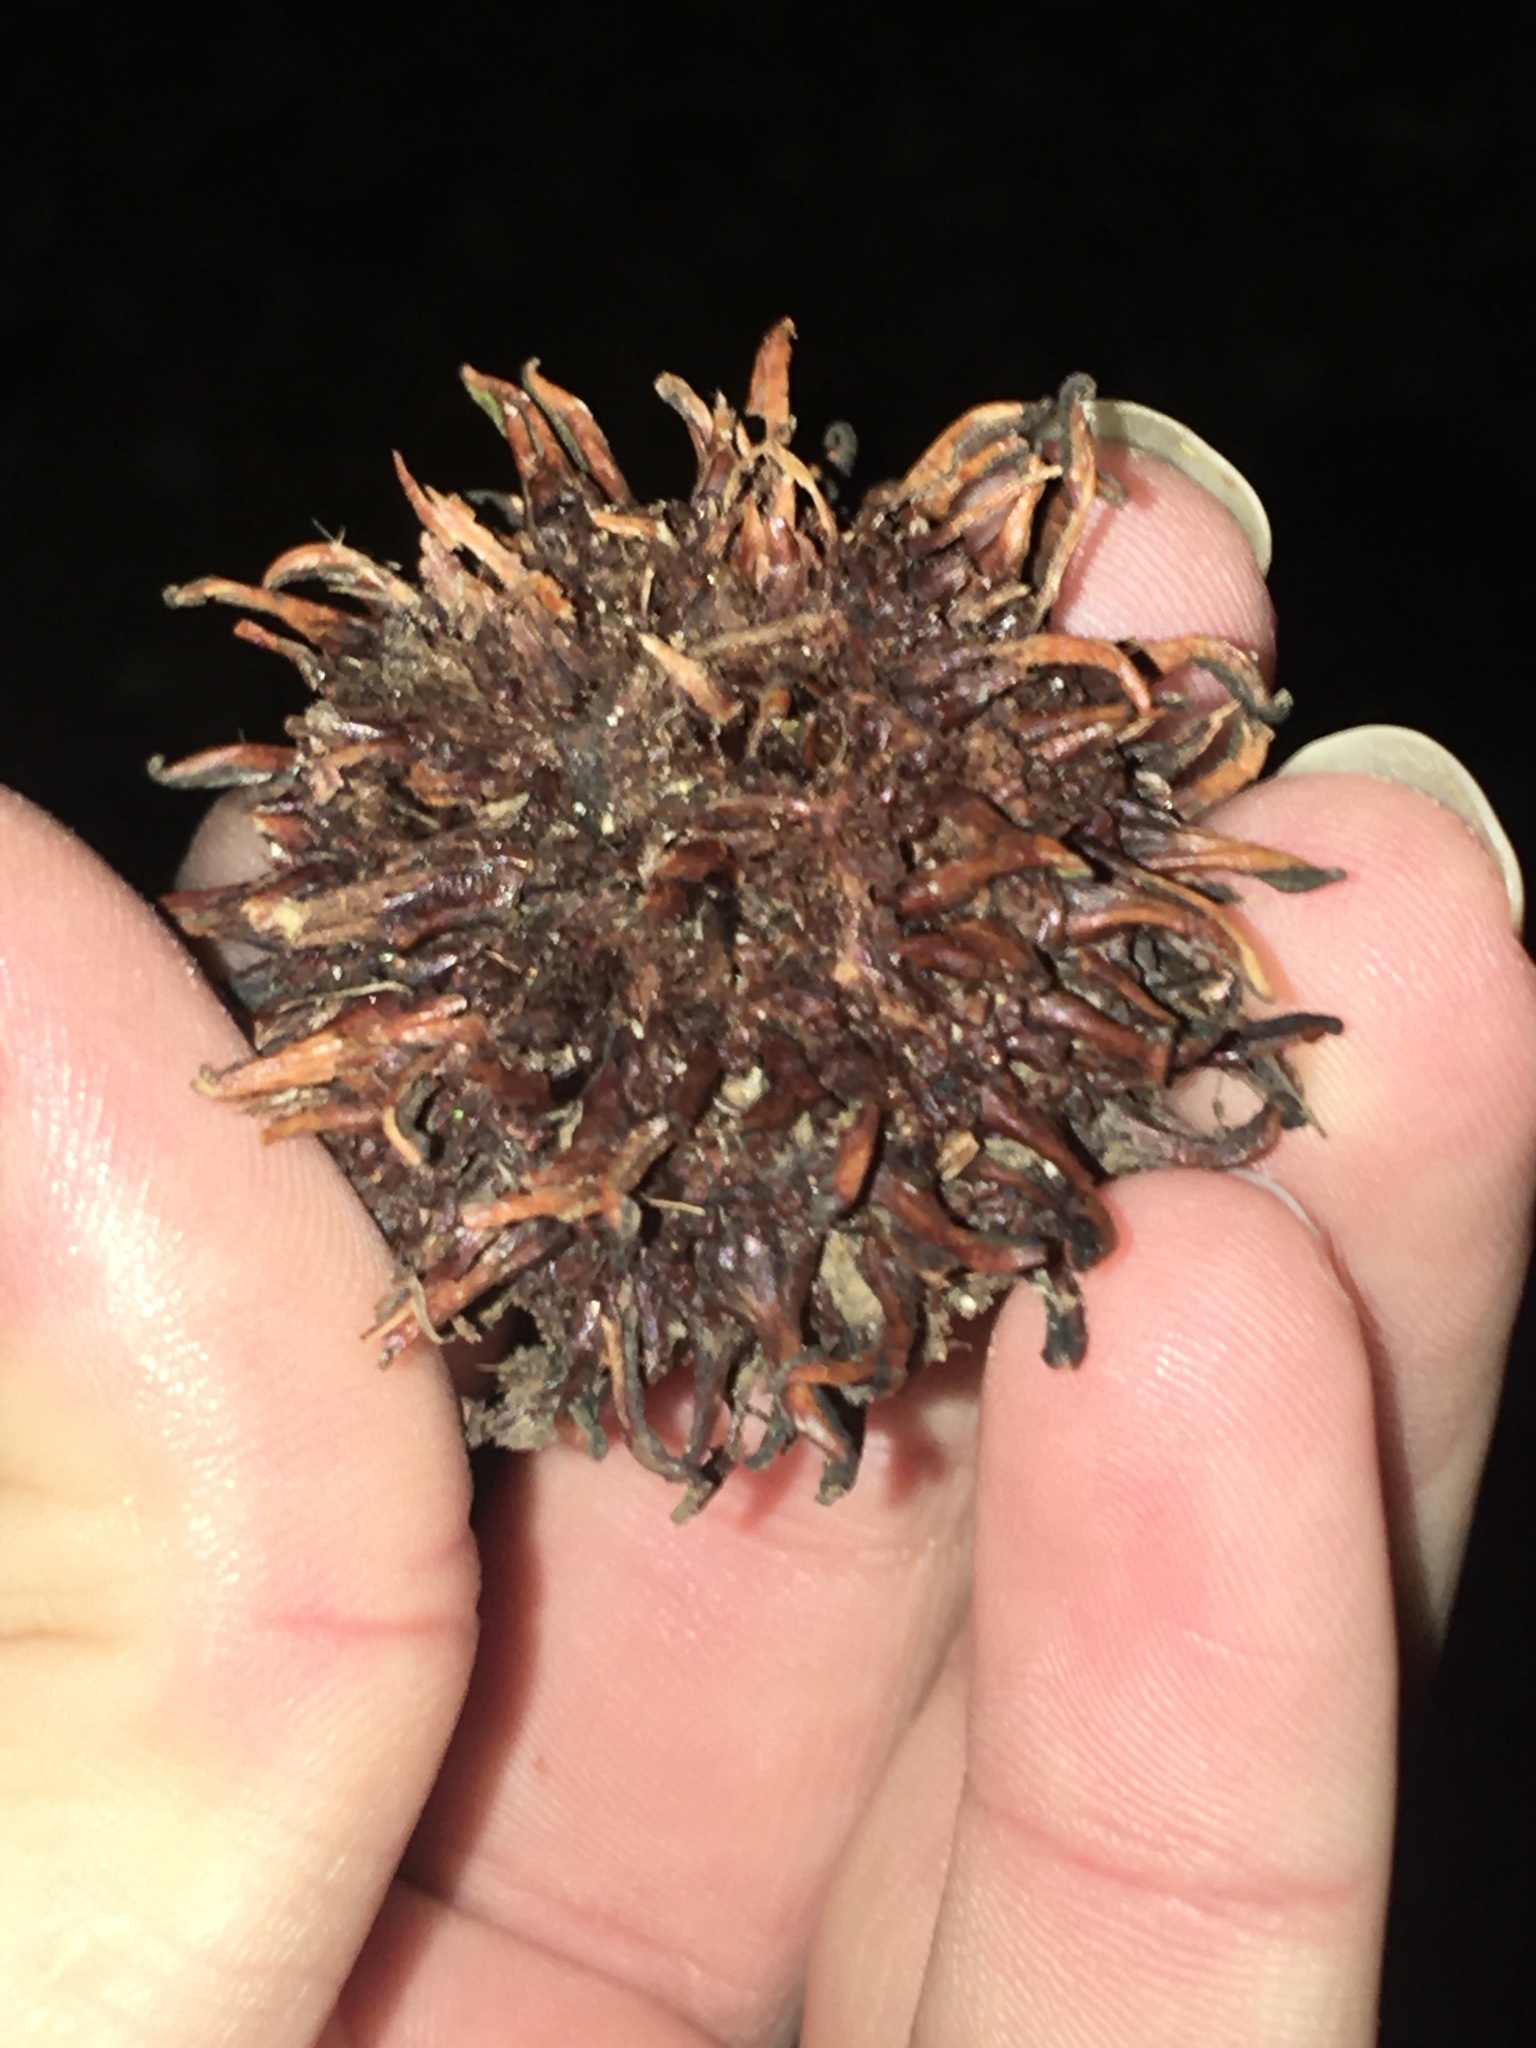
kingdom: Plantae
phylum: Tracheophyta
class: Magnoliopsida
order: Saxifragales
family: Altingiaceae
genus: Liquidambar
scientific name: Liquidambar styraciflua
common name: Sweet gum
